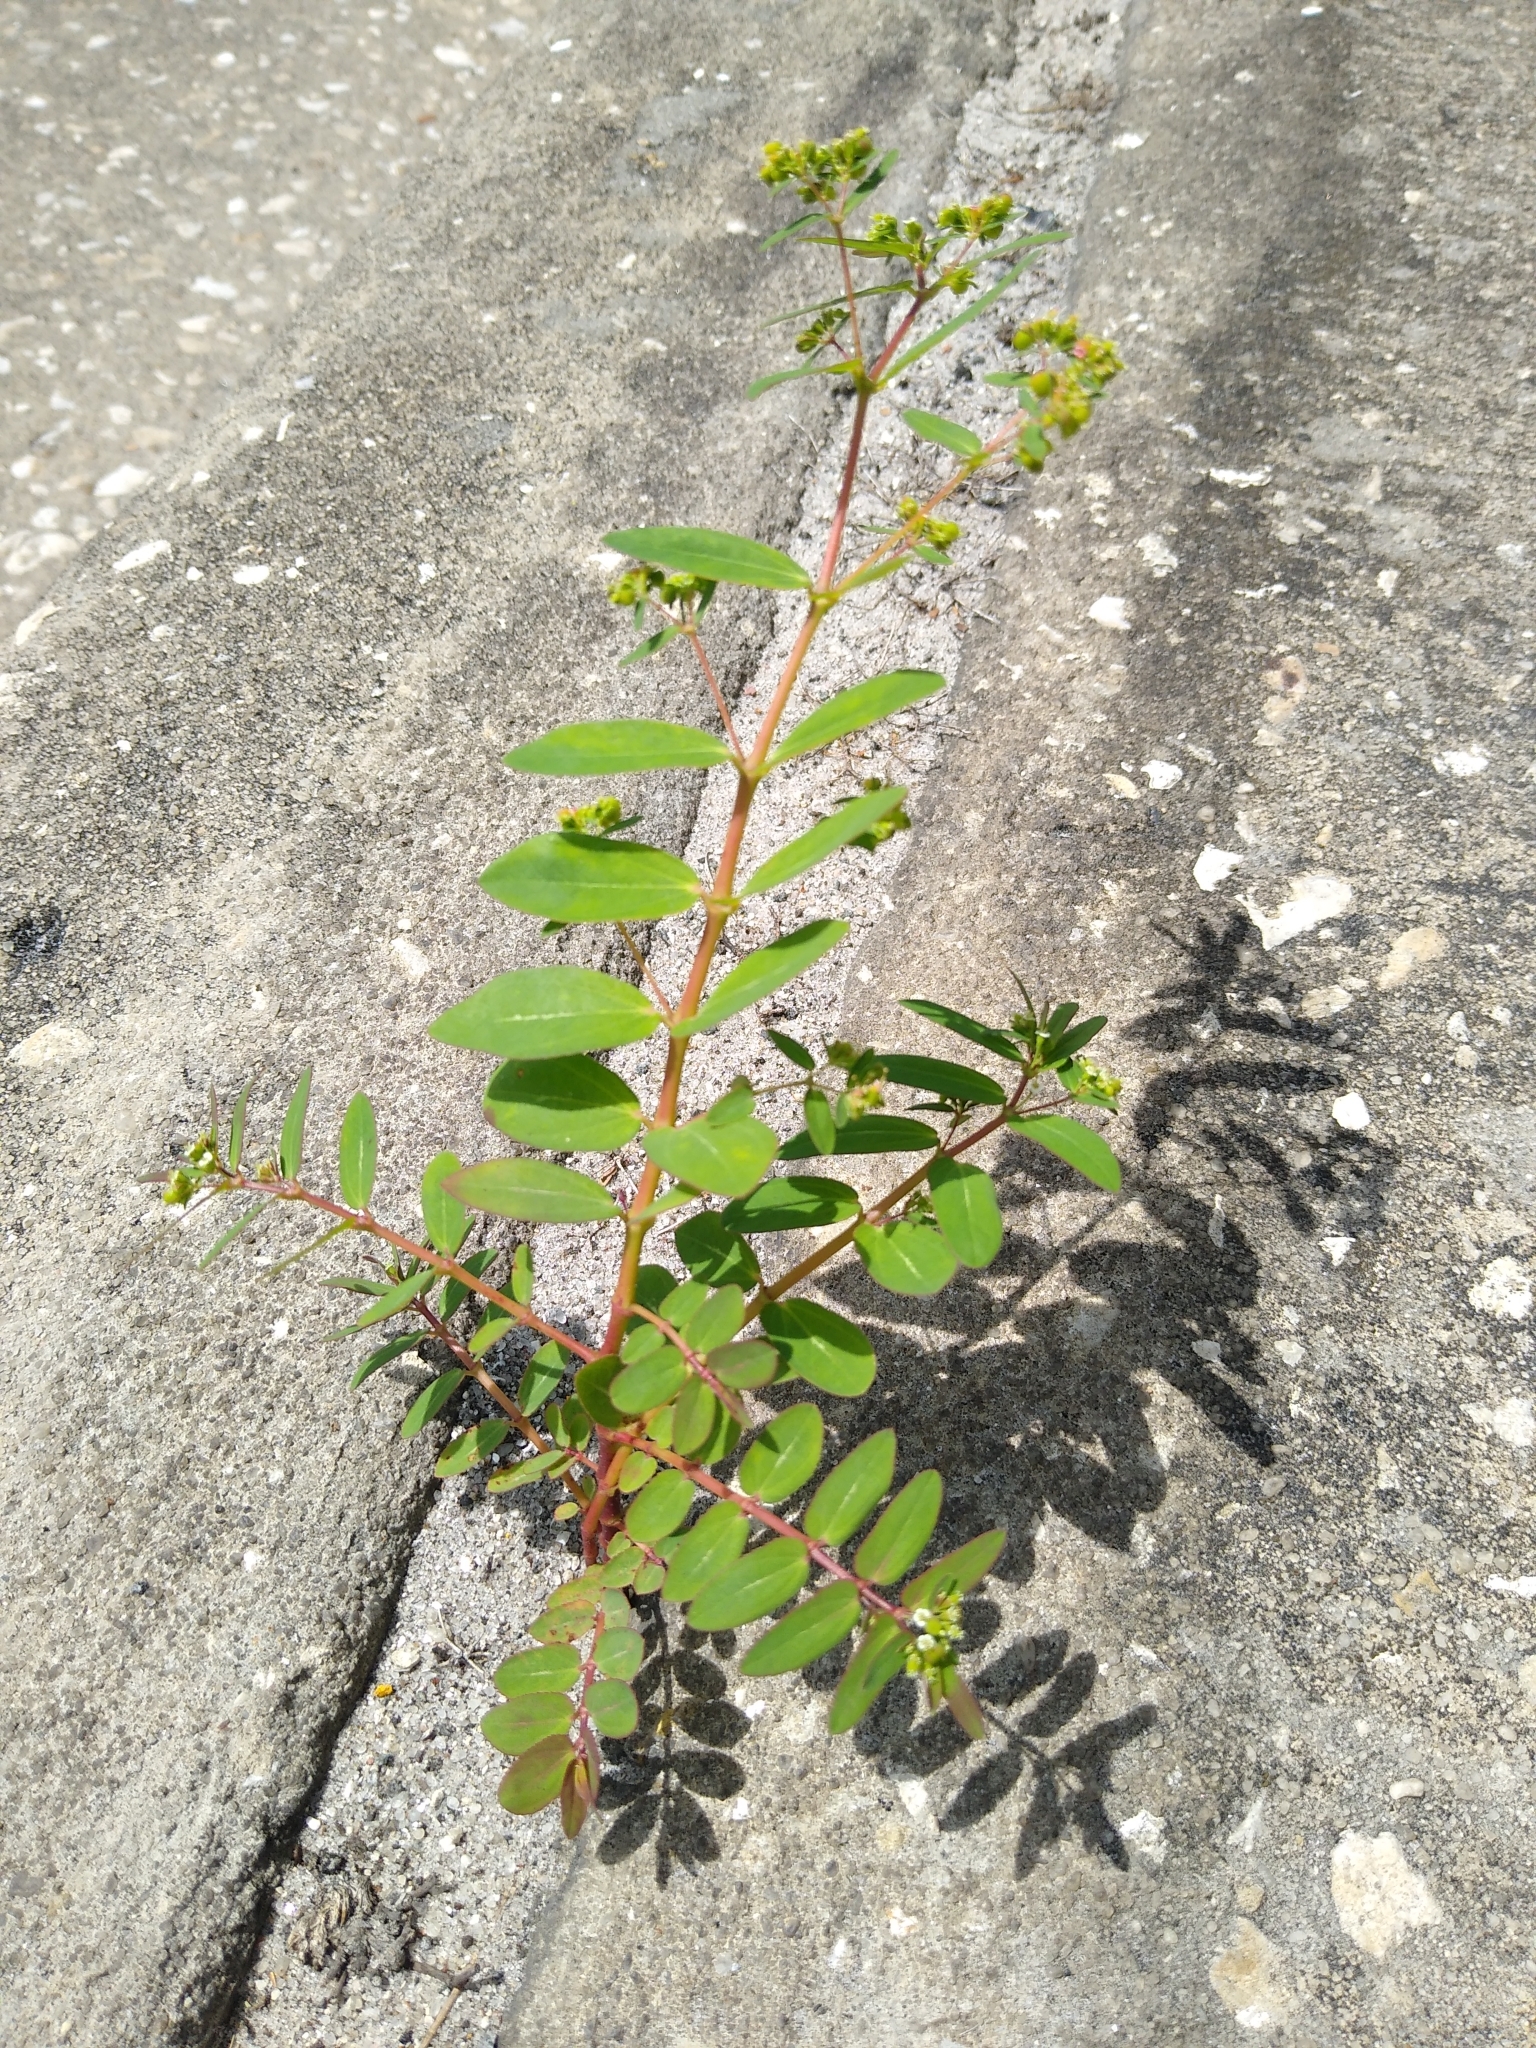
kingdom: Plantae
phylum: Tracheophyta
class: Magnoliopsida
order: Malpighiales
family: Euphorbiaceae
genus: Euphorbia
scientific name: Euphorbia hyssopifolia
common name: Hyssopleaf sandmat
